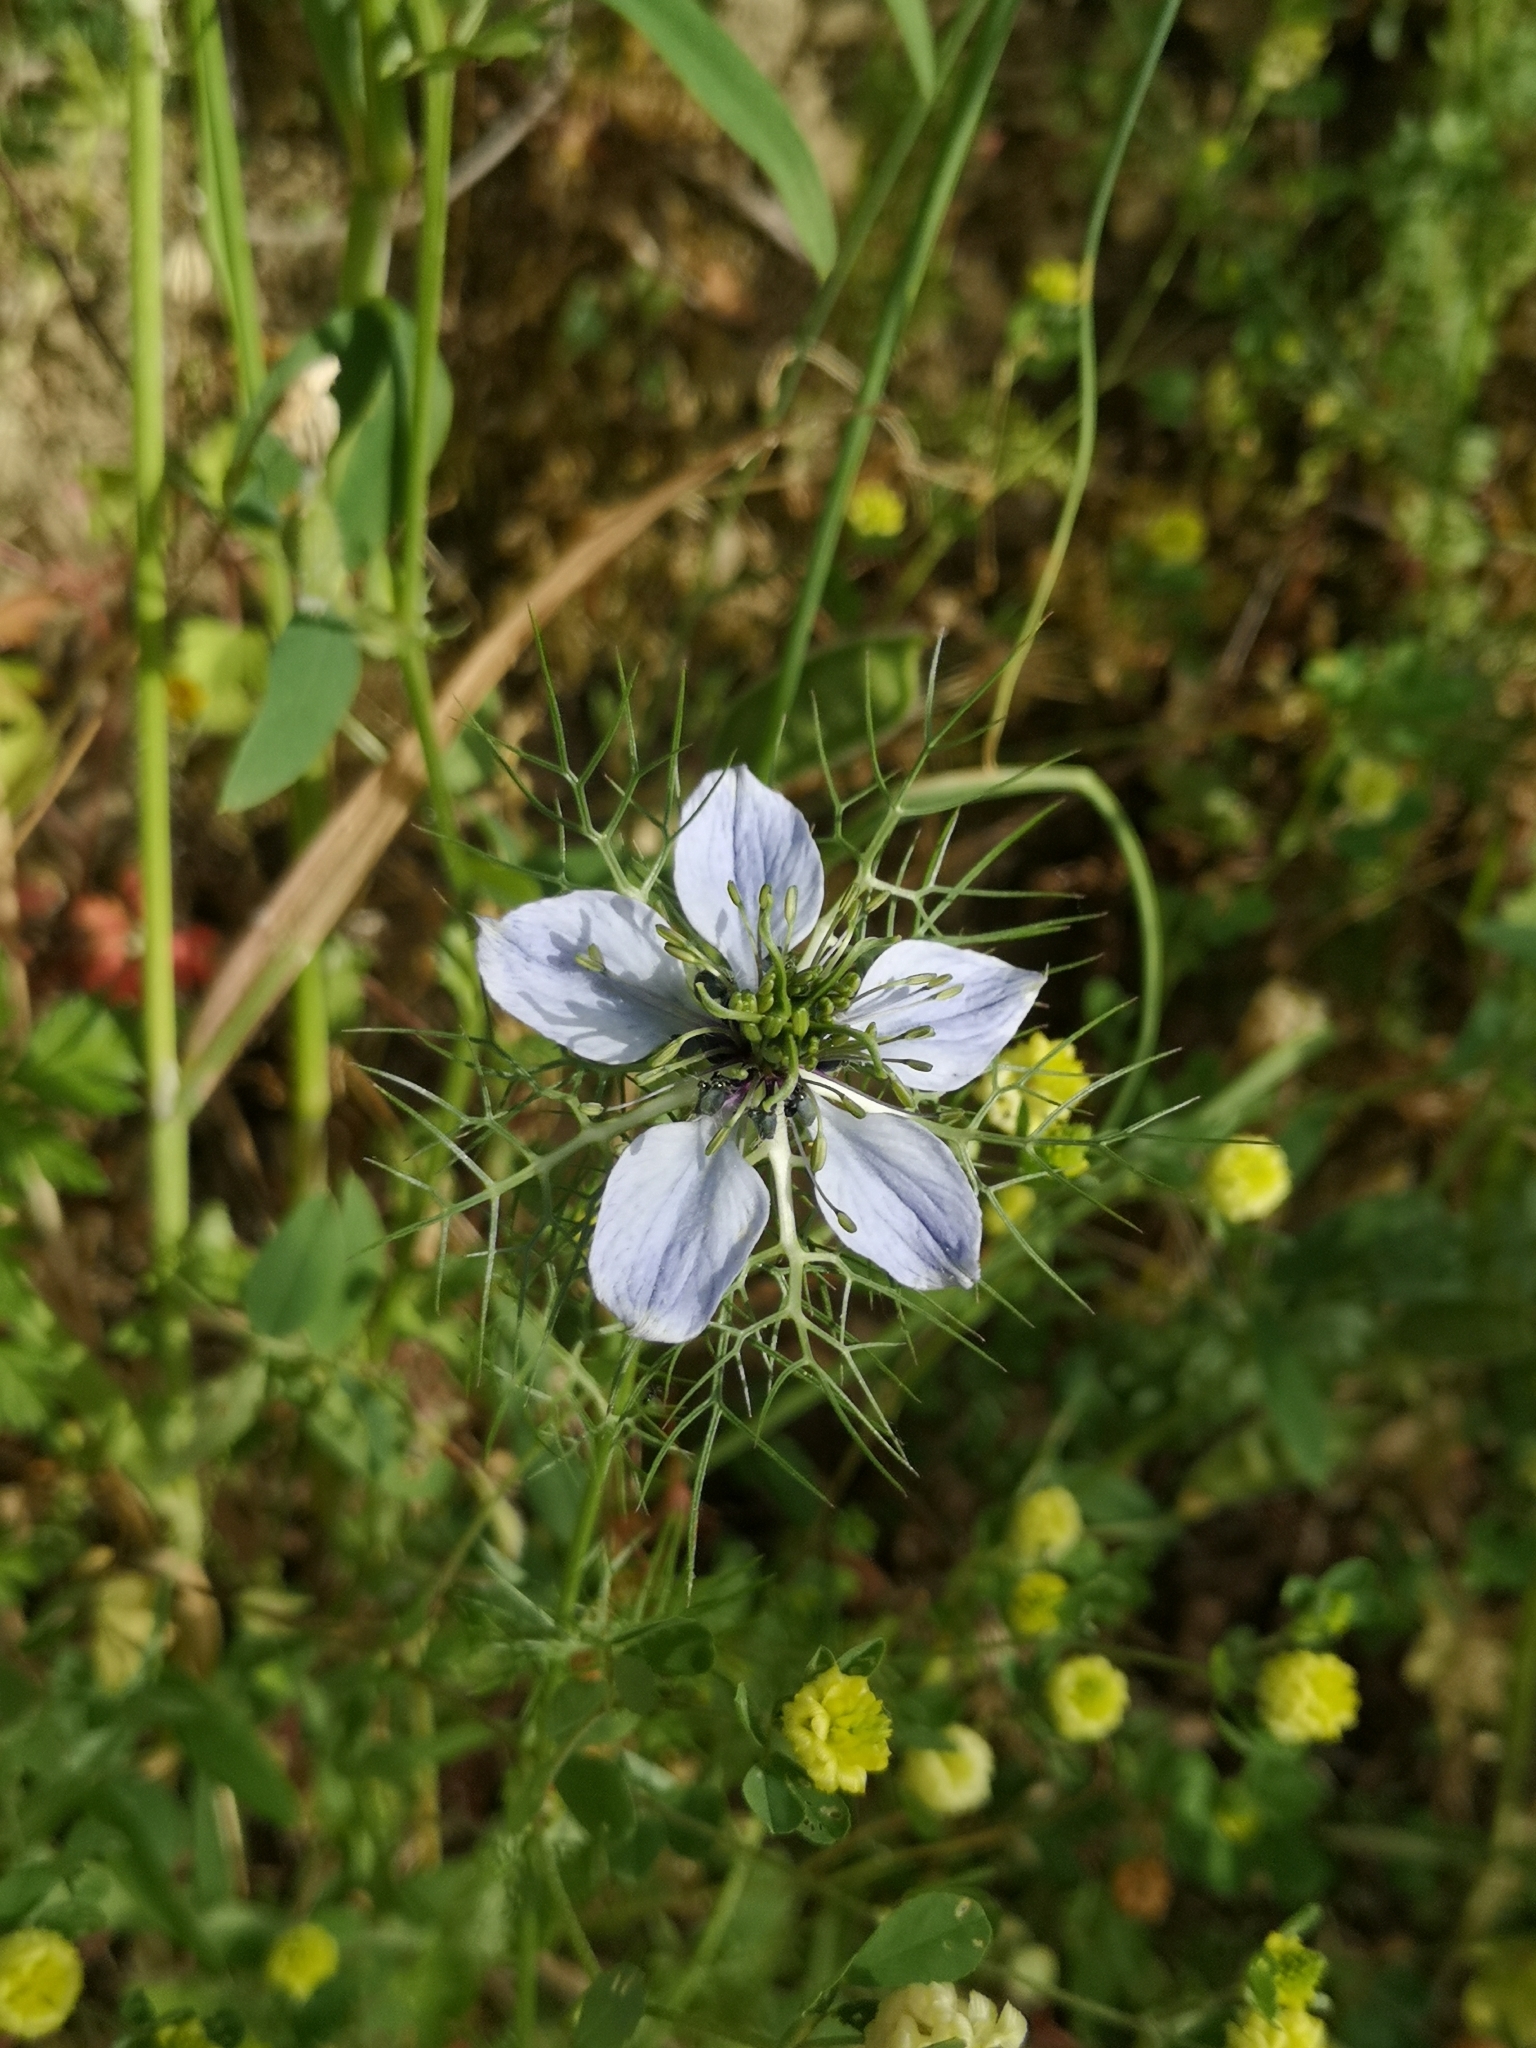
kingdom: Plantae
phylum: Tracheophyta
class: Magnoliopsida
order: Ranunculales
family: Ranunculaceae
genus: Nigella
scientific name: Nigella damascena
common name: Love-in-a-mist
